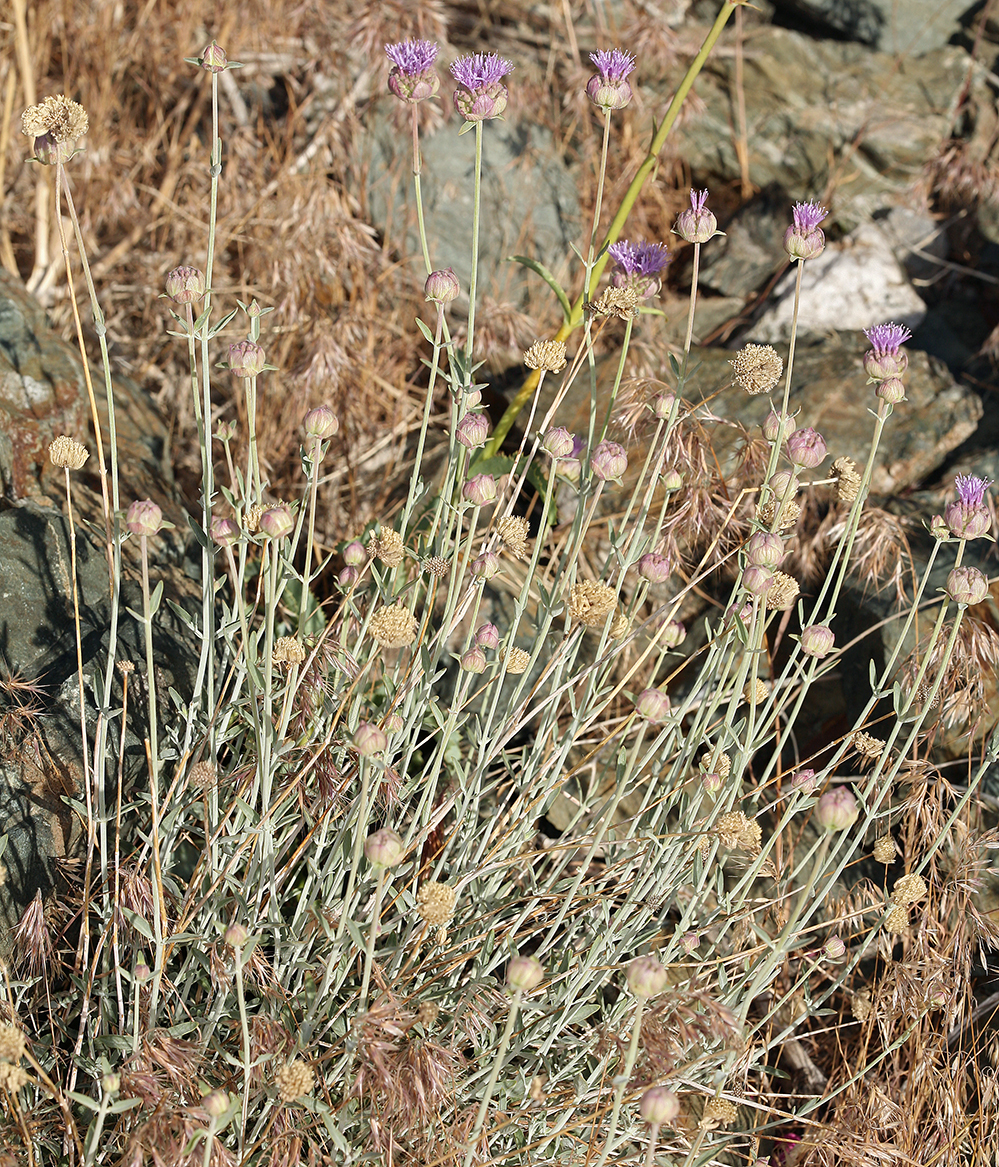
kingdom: Plantae
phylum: Tracheophyta
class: Magnoliopsida
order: Lamiales
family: Lamiaceae
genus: Monardella
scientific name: Monardella linoides
